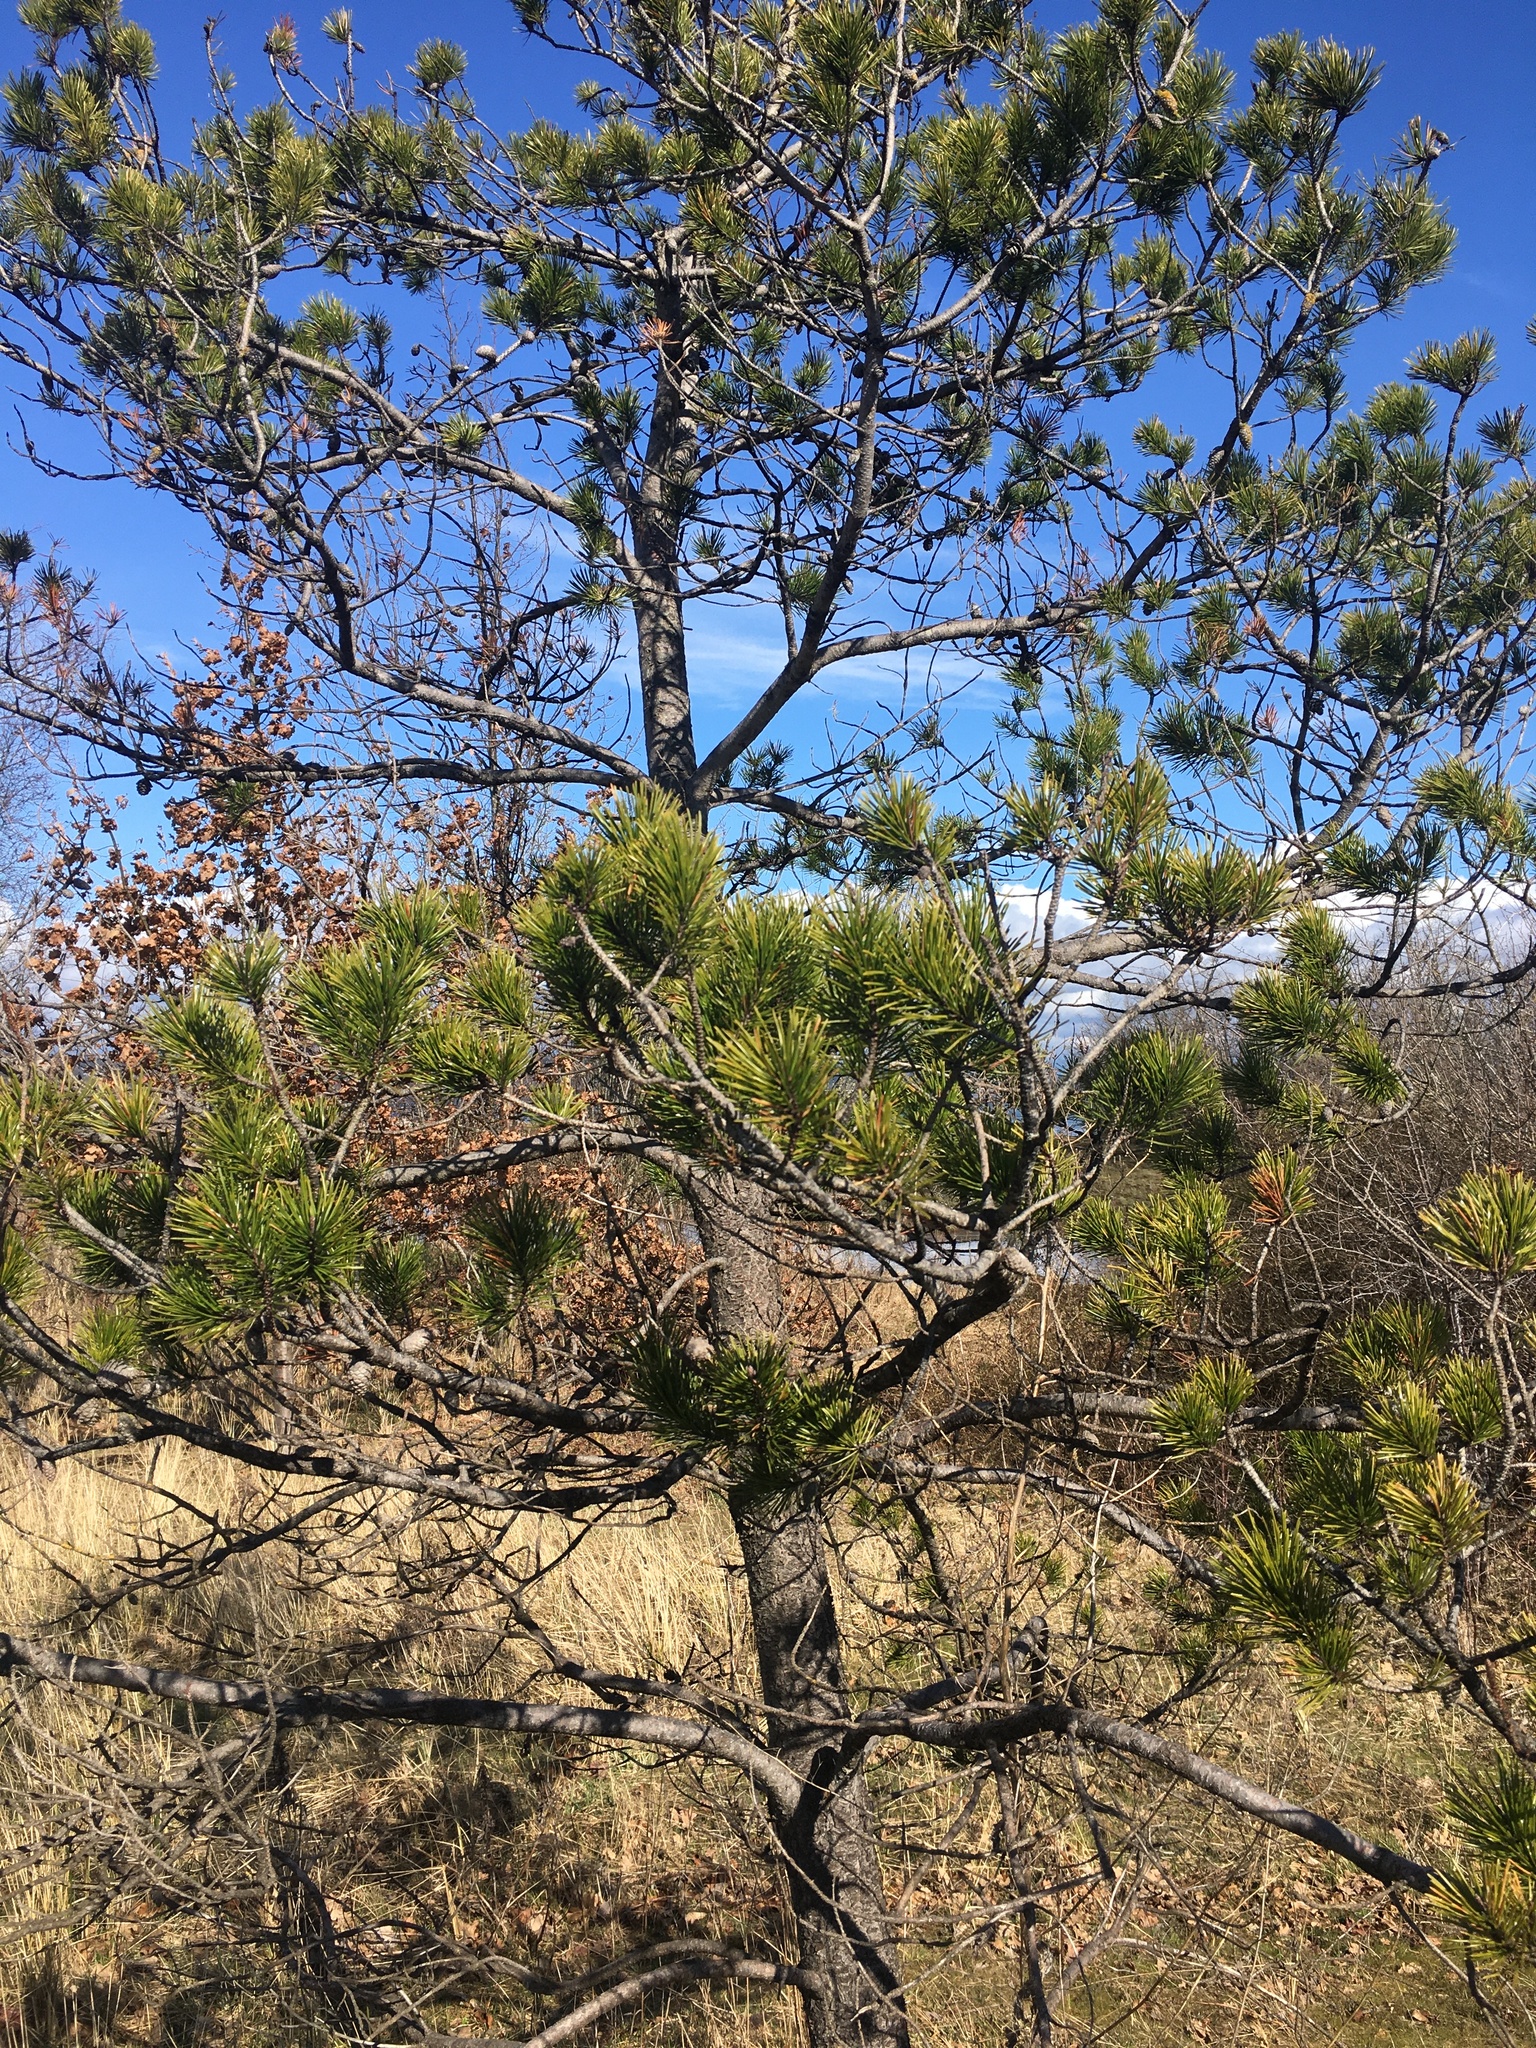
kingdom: Plantae
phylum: Tracheophyta
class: Pinopsida
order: Pinales
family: Pinaceae
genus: Pinus
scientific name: Pinus contorta
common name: Lodgepole pine
